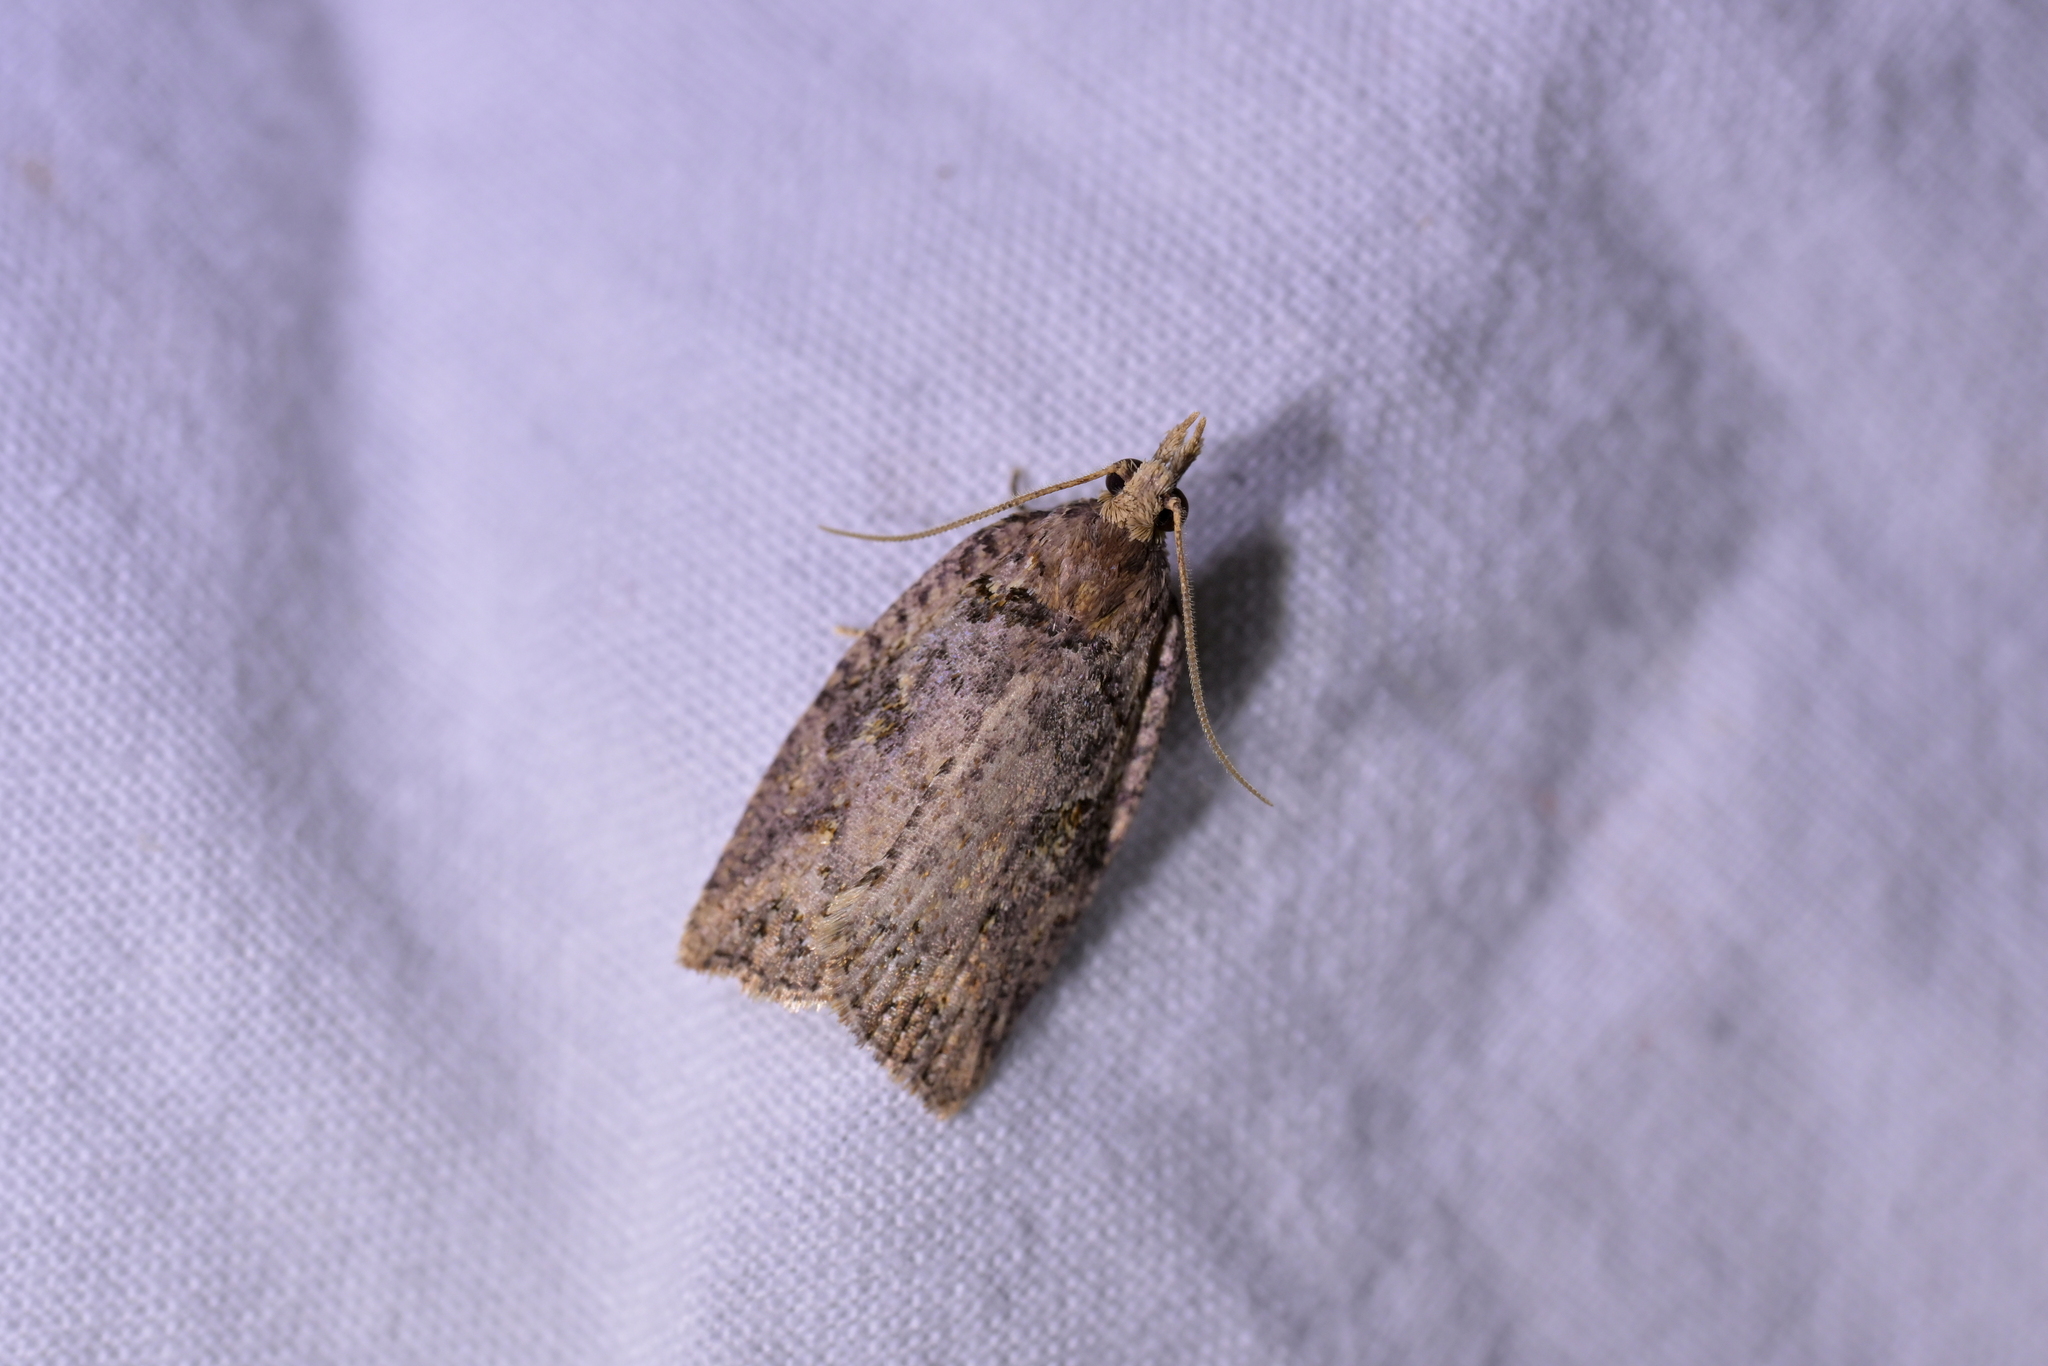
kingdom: Animalia
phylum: Arthropoda
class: Insecta
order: Lepidoptera
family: Tortricidae
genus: Ctenopseustis
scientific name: Ctenopseustis obliquana
